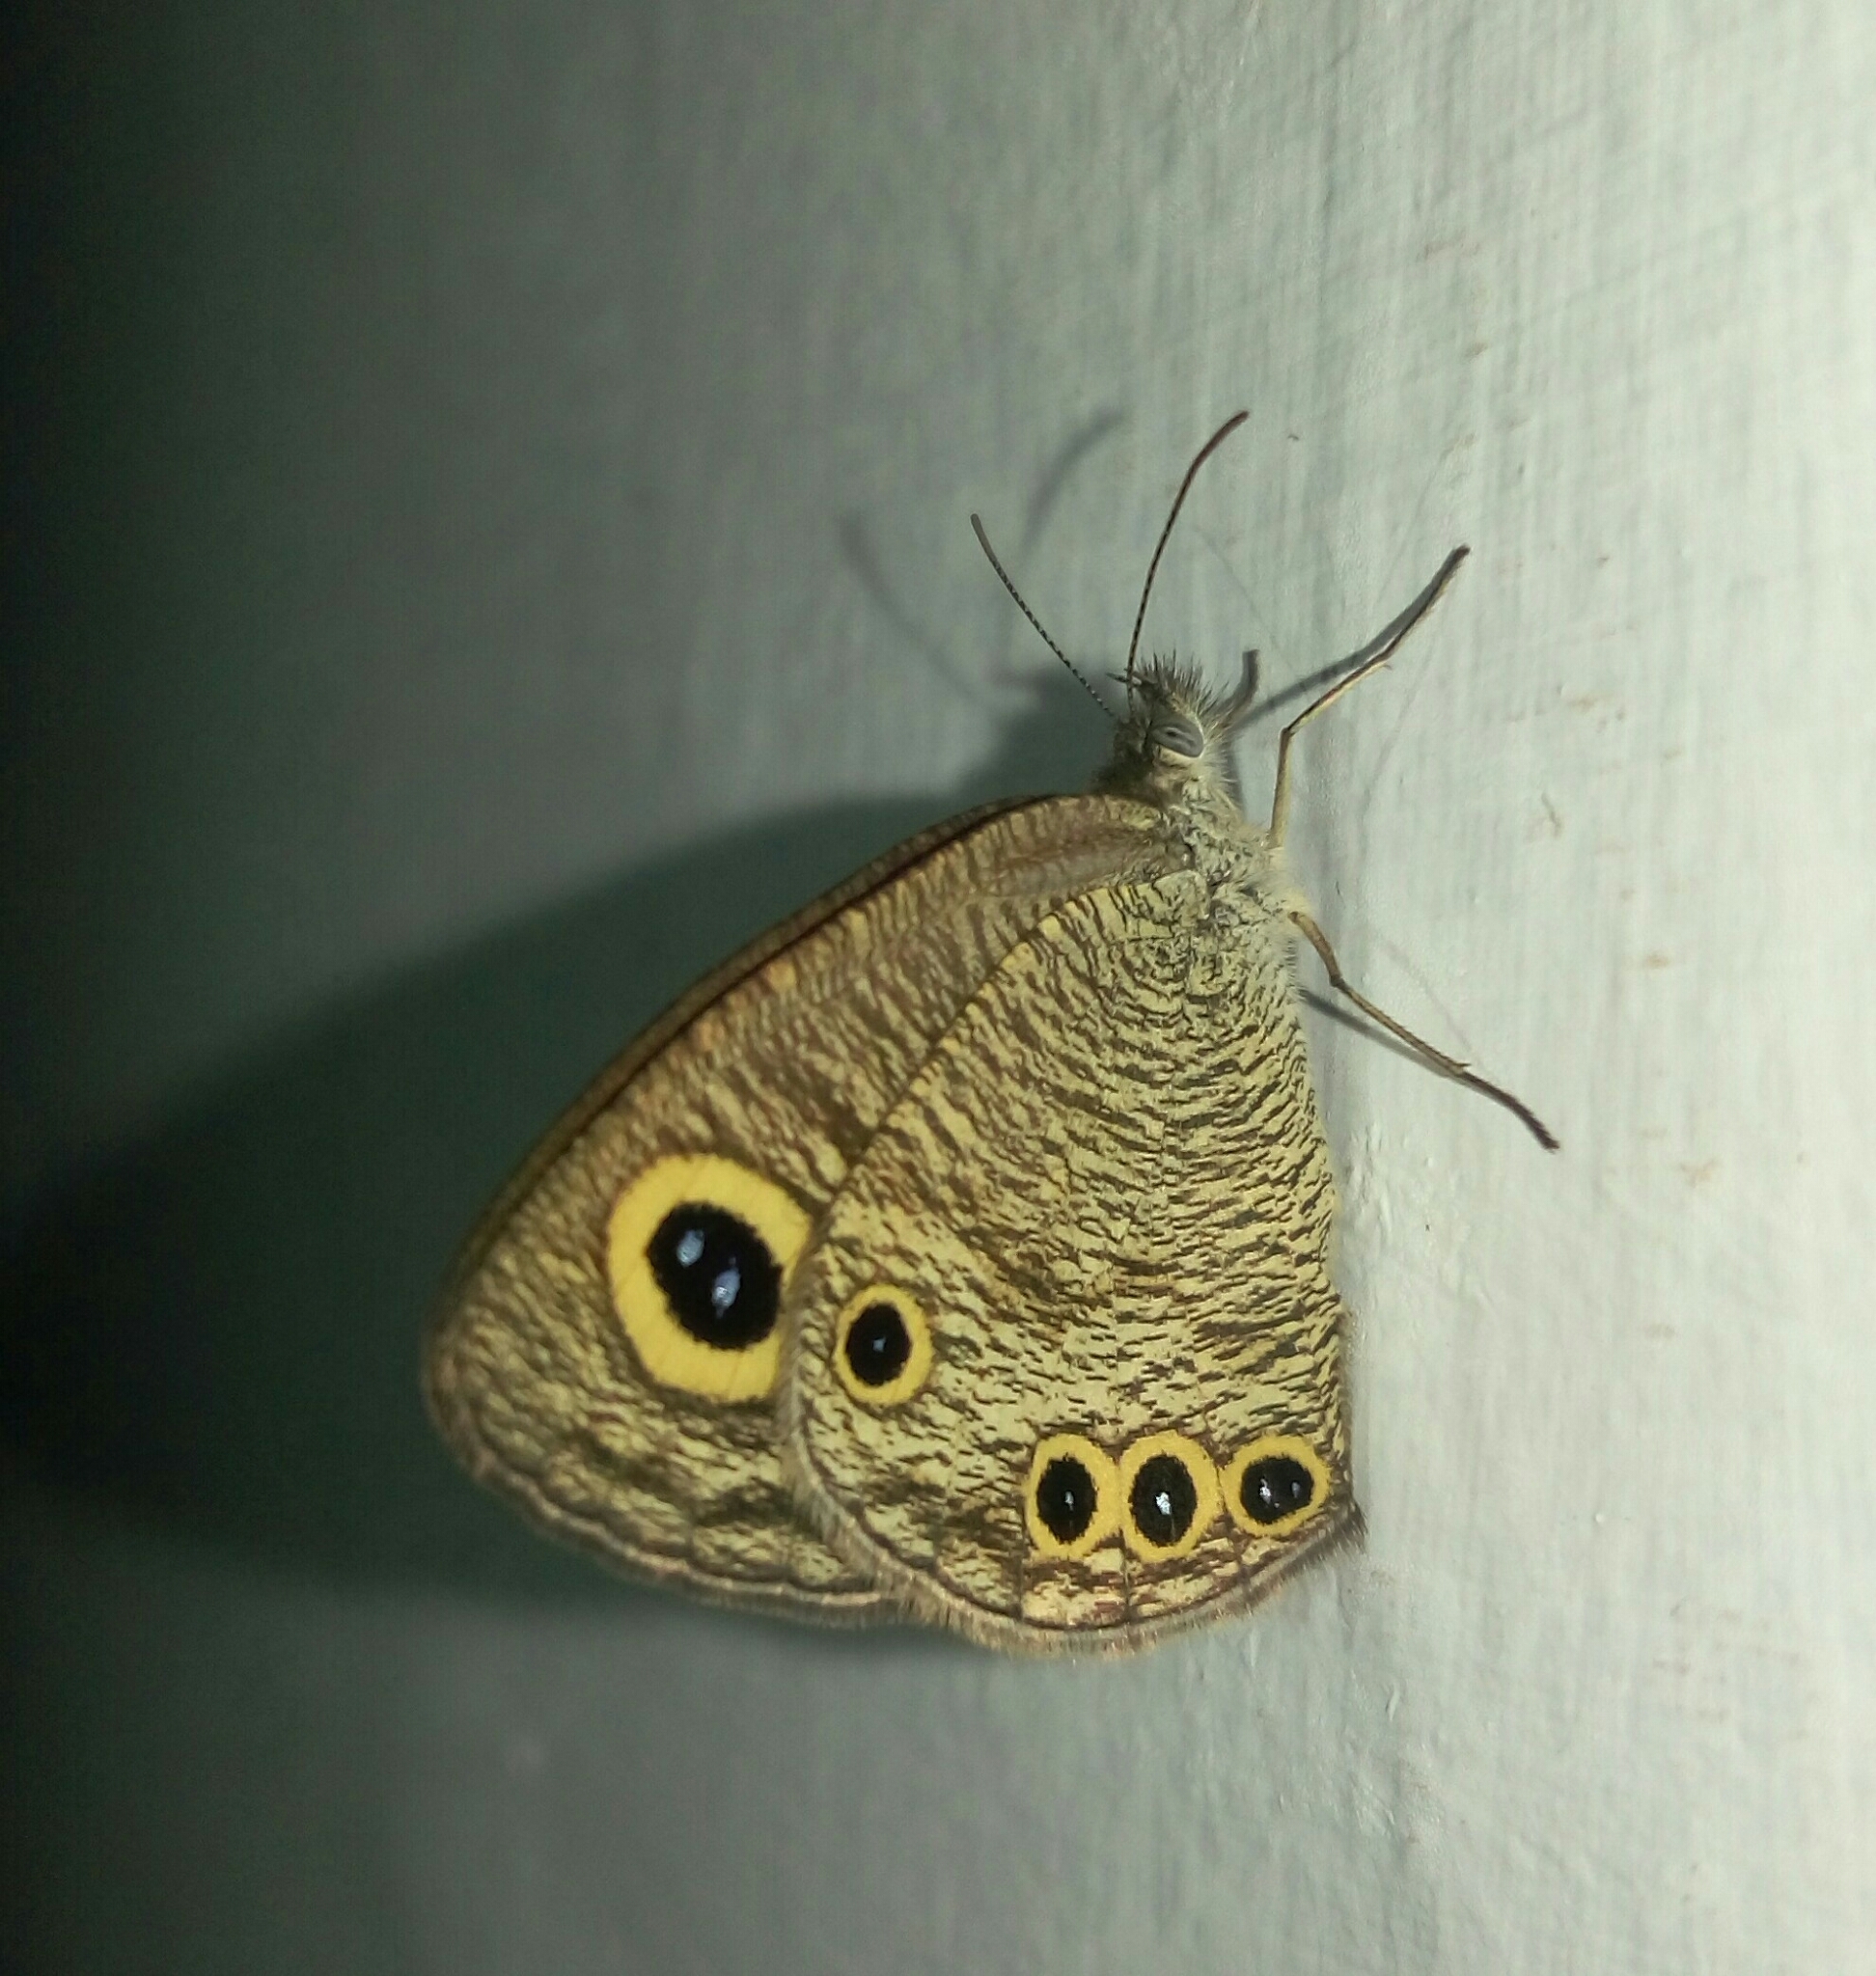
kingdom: Animalia
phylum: Arthropoda
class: Insecta
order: Lepidoptera
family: Nymphalidae
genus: Ypthima
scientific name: Ypthima huebneri
